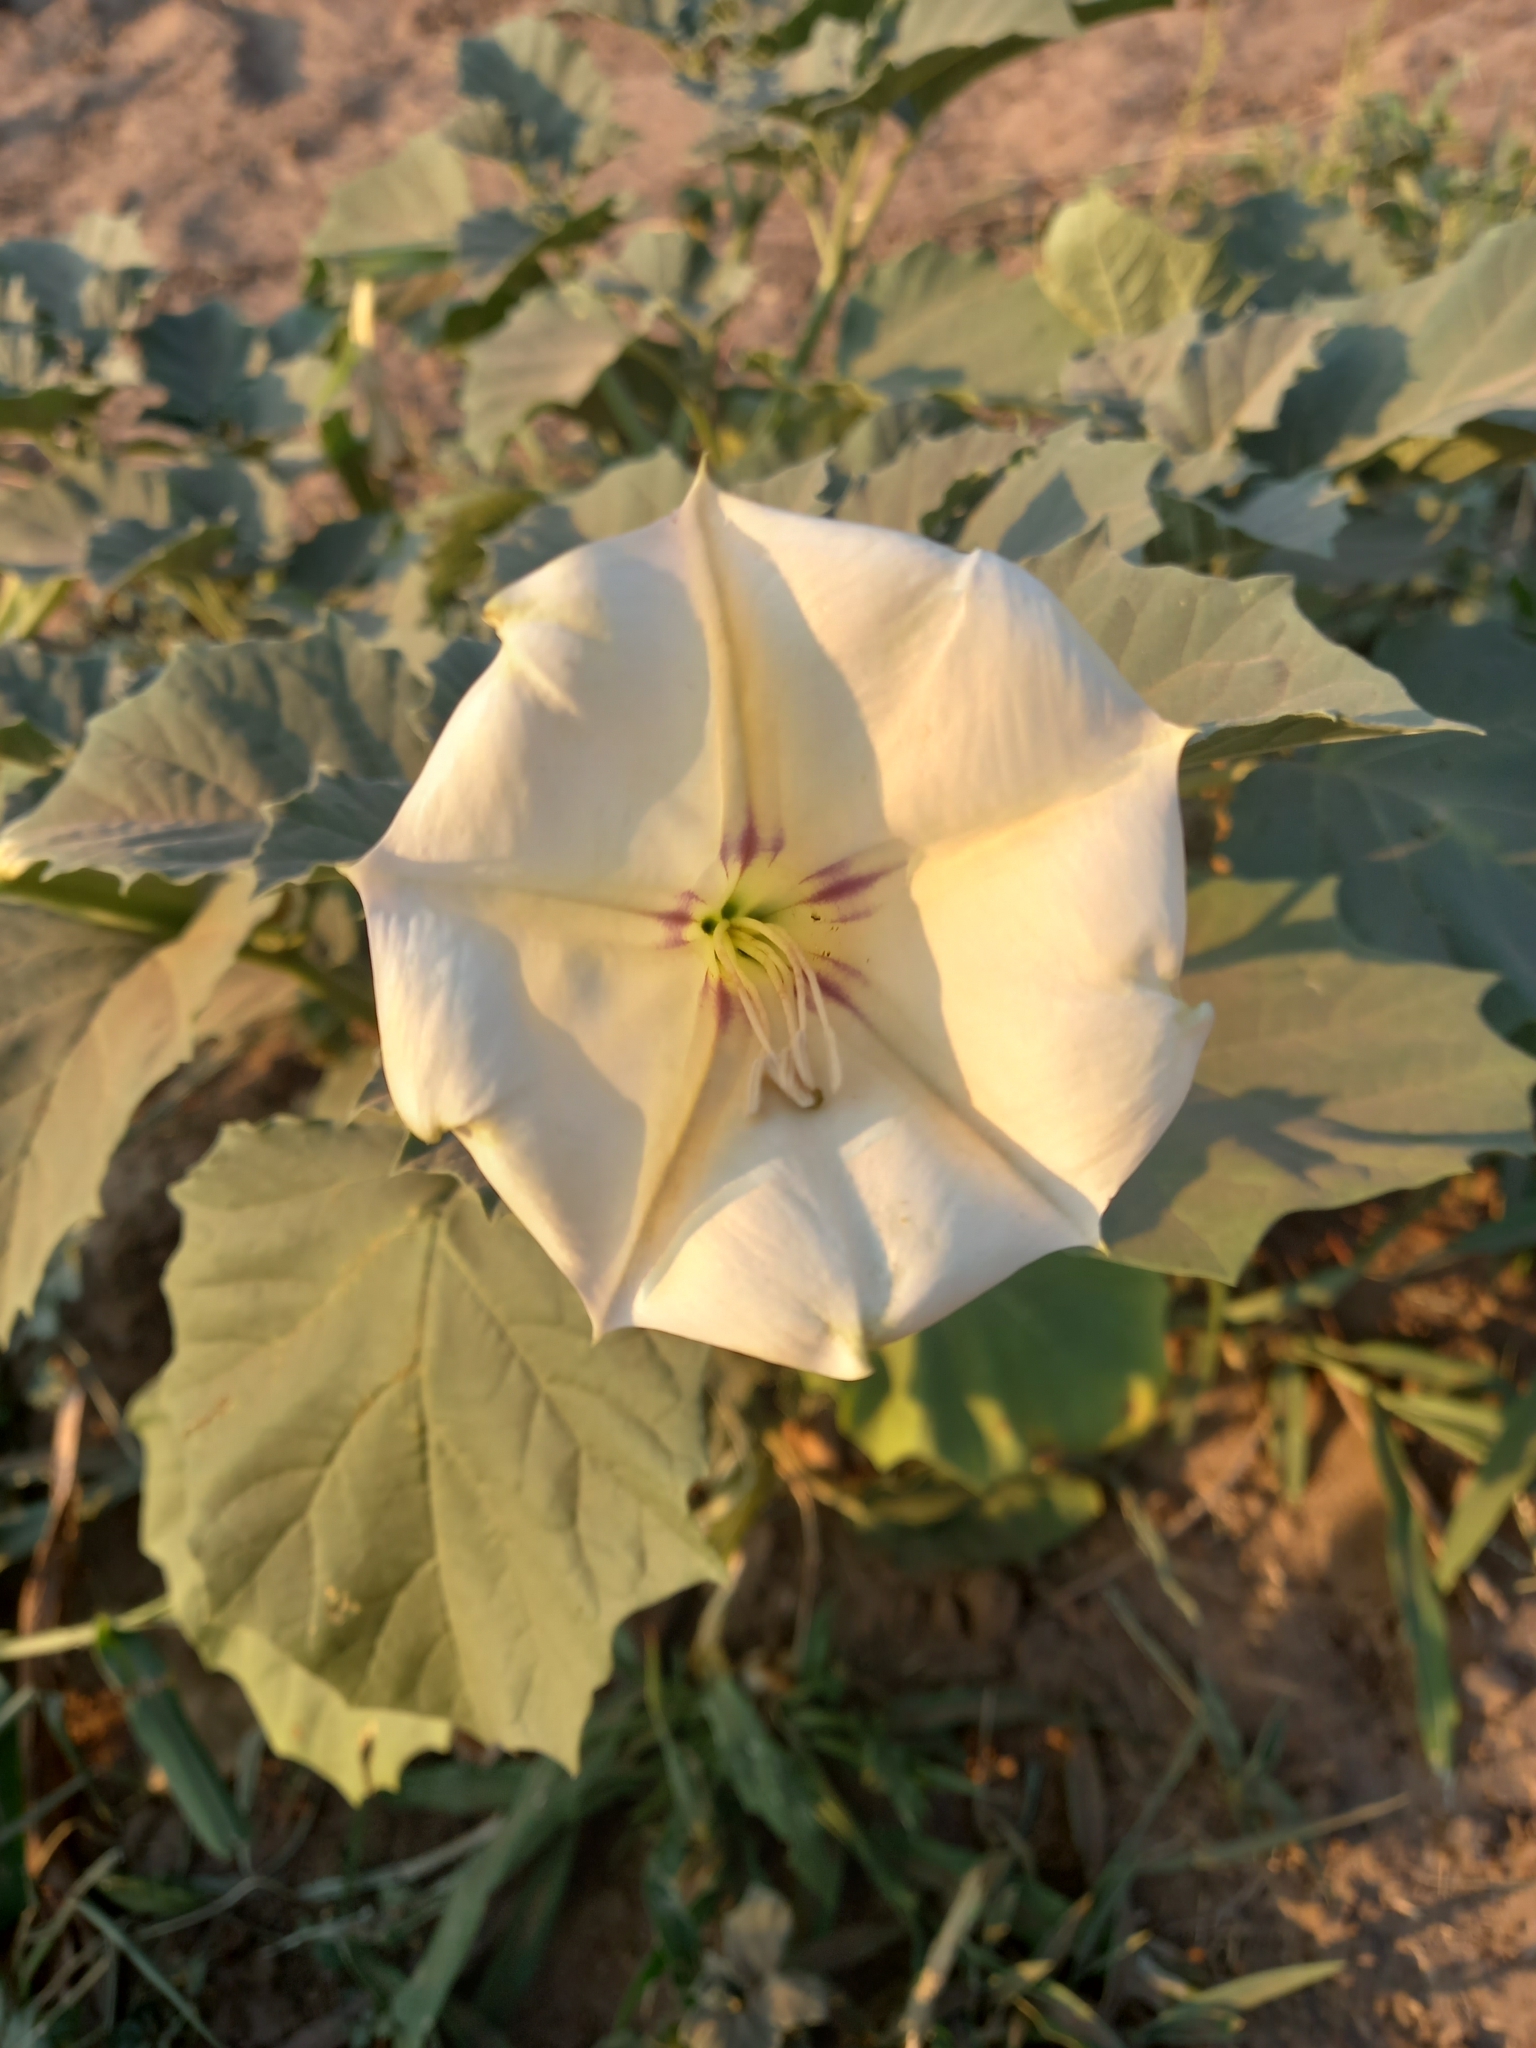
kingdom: Plantae
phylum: Tracheophyta
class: Magnoliopsida
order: Solanales
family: Solanaceae
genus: Datura
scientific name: Datura discolor
